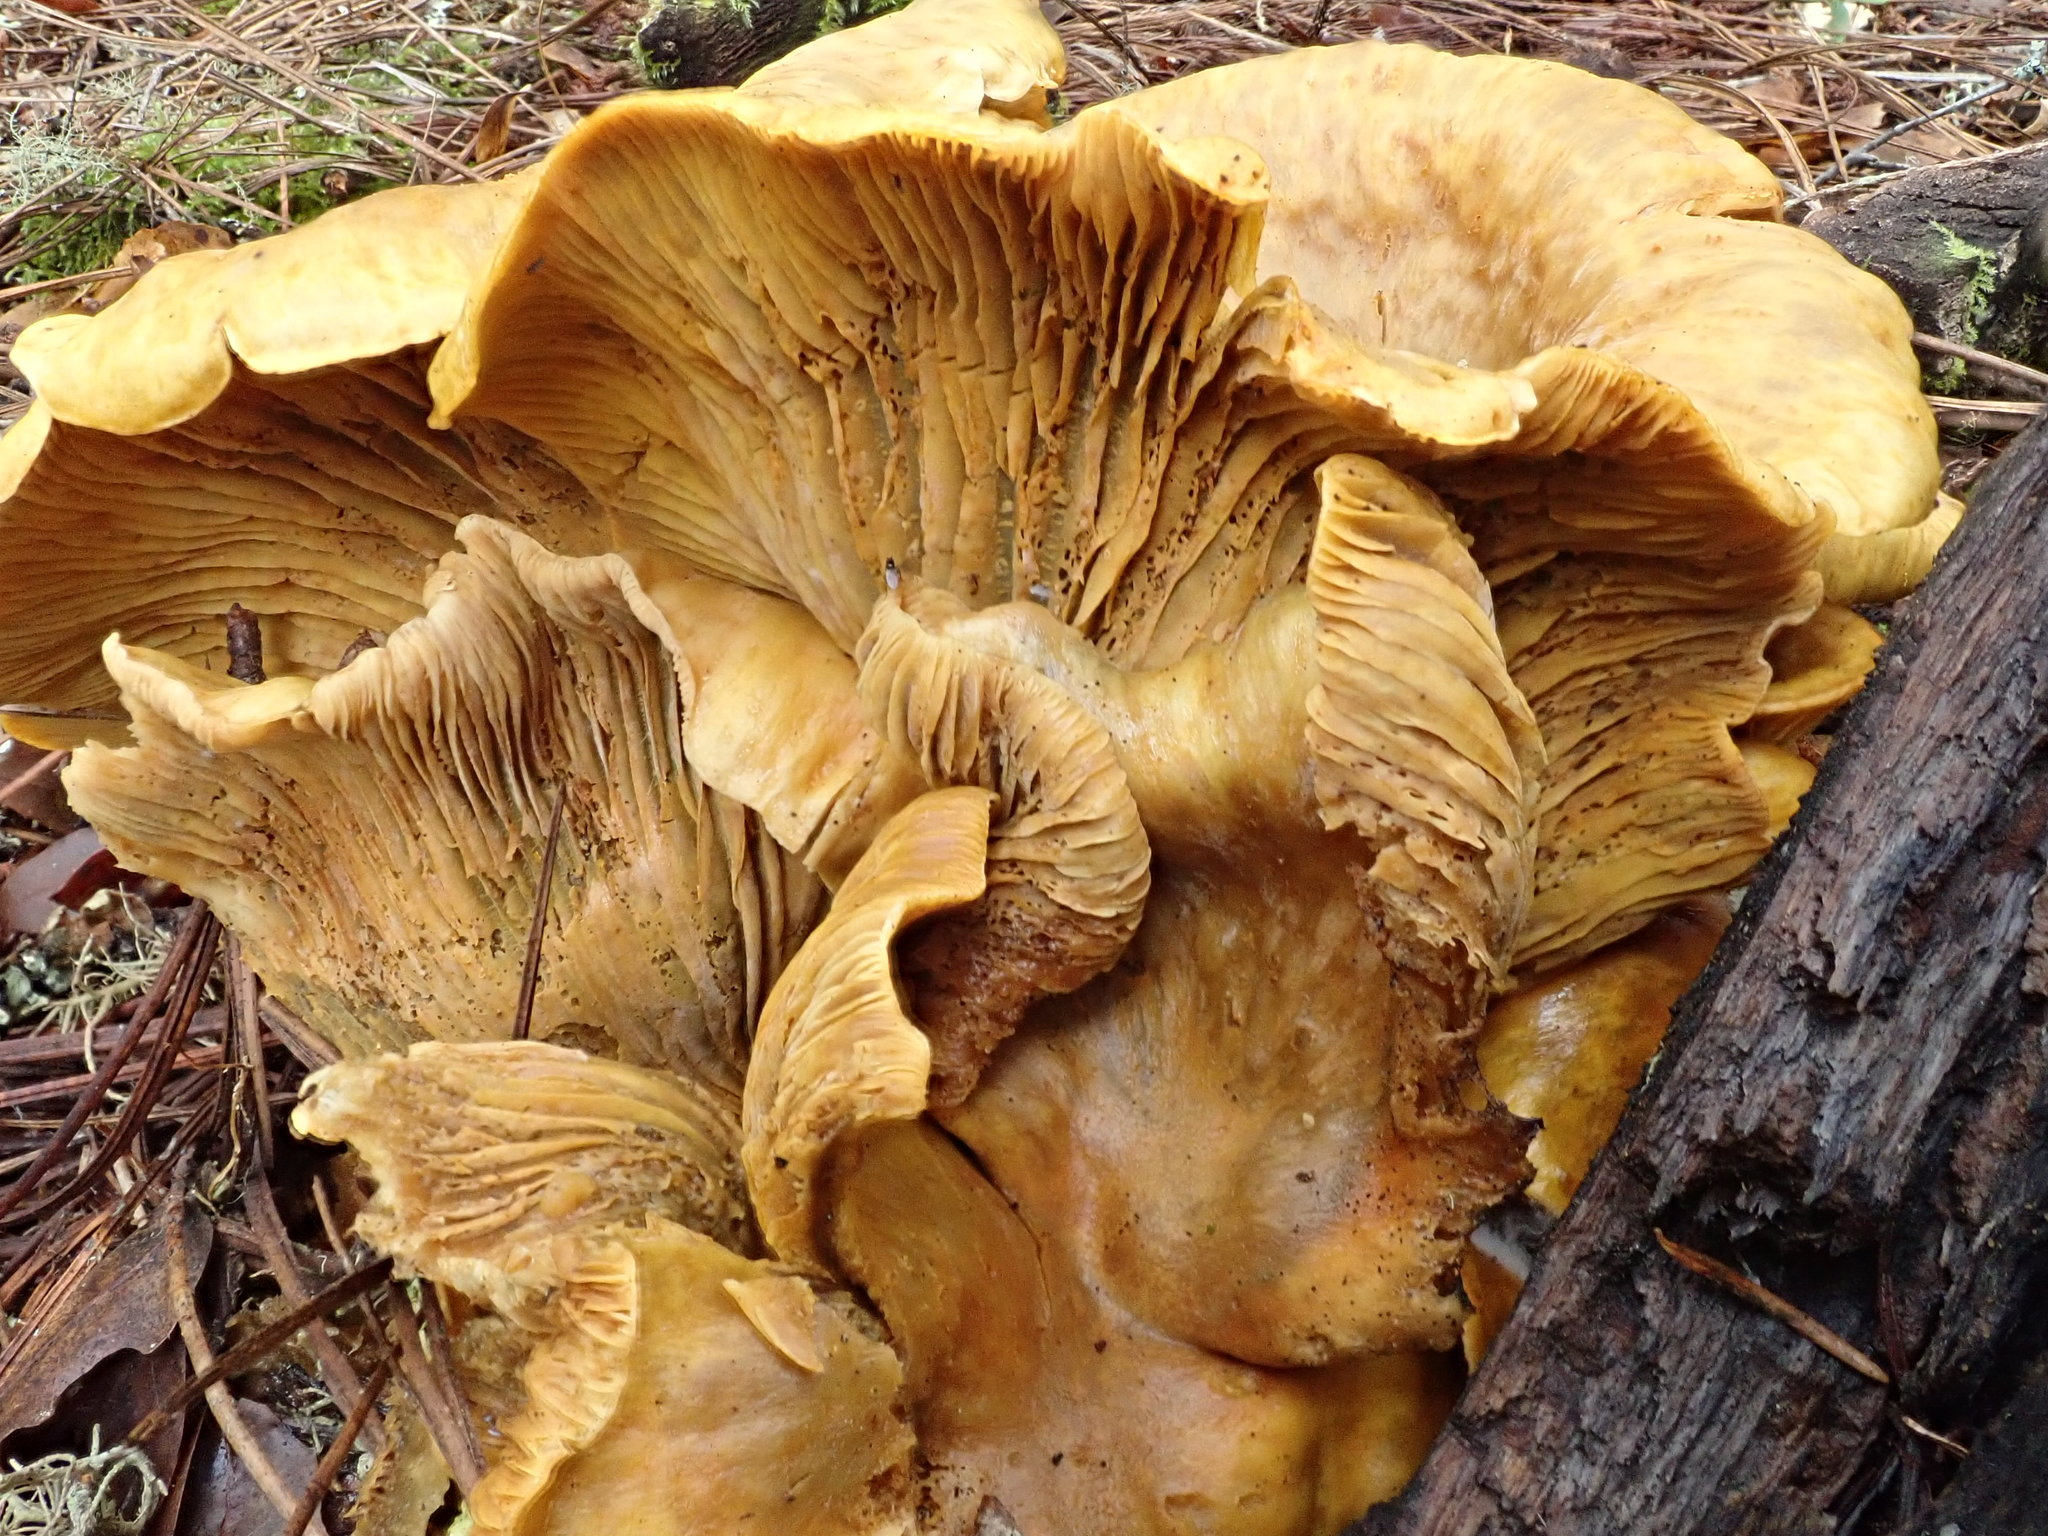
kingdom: Fungi
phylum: Basidiomycota
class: Agaricomycetes
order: Agaricales
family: Omphalotaceae
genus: Omphalotus
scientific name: Omphalotus olivascens
